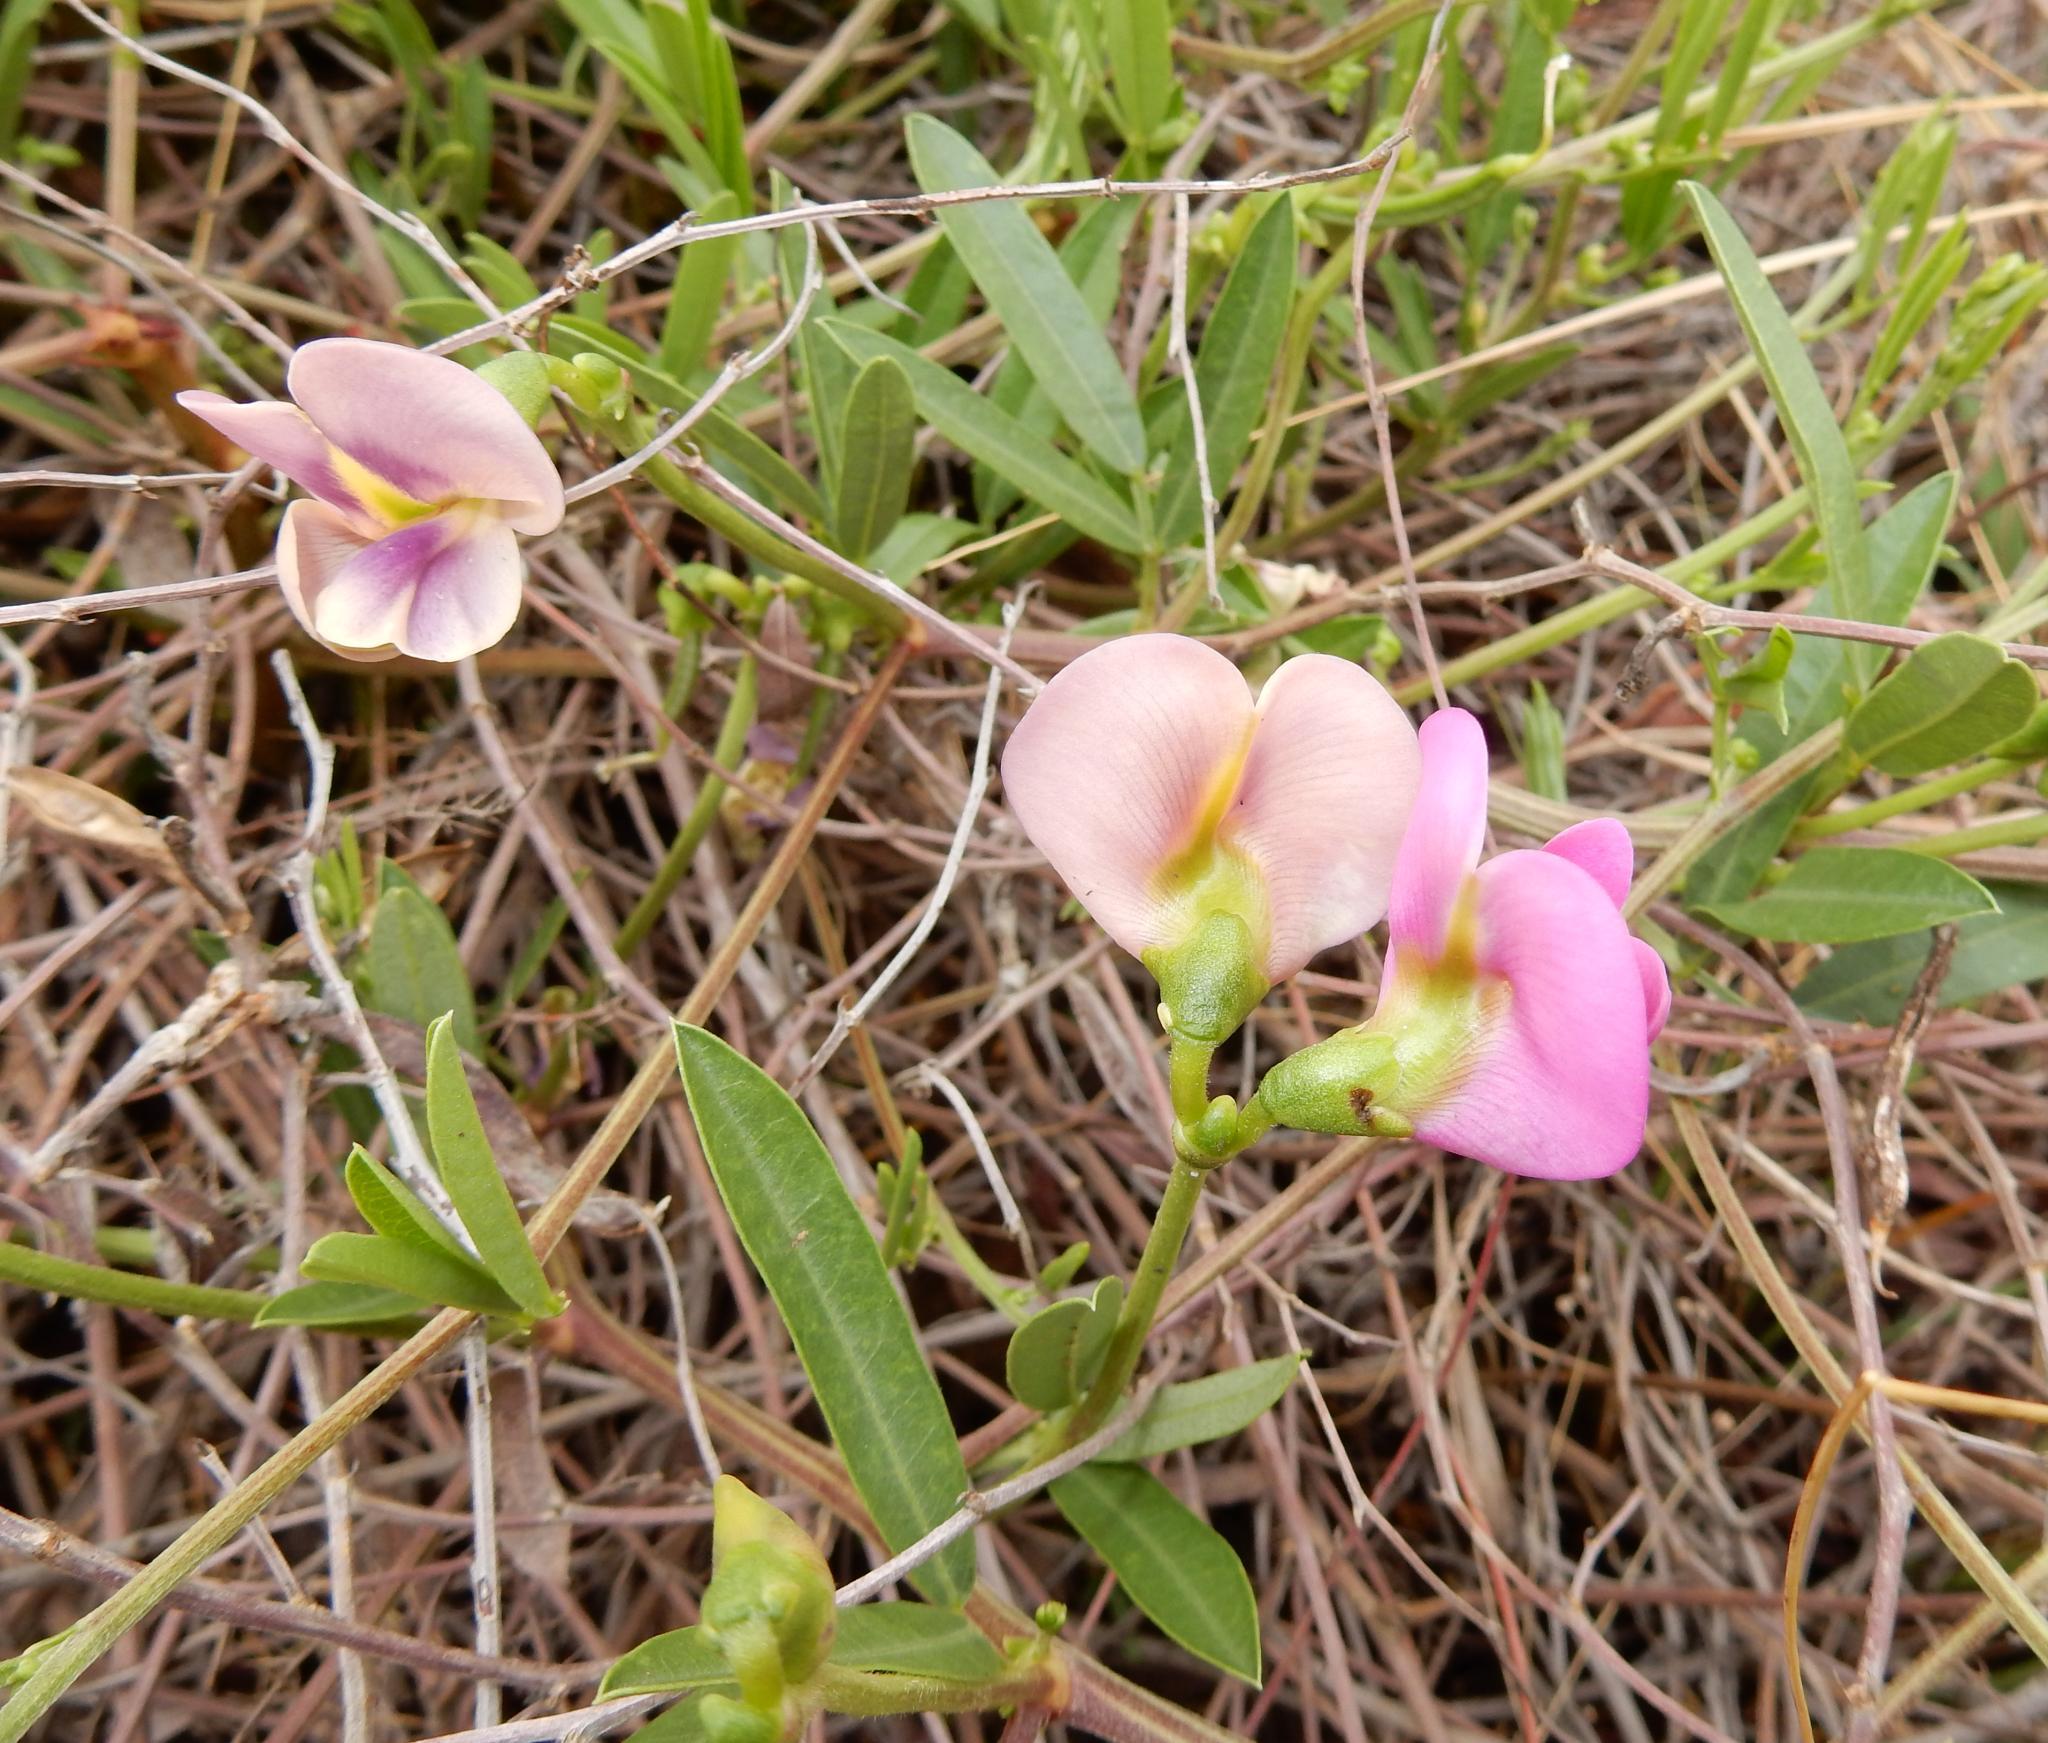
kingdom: Plantae
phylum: Tracheophyta
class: Magnoliopsida
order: Fabales
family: Fabaceae
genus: Sphenostylis
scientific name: Sphenostylis angustifolia
